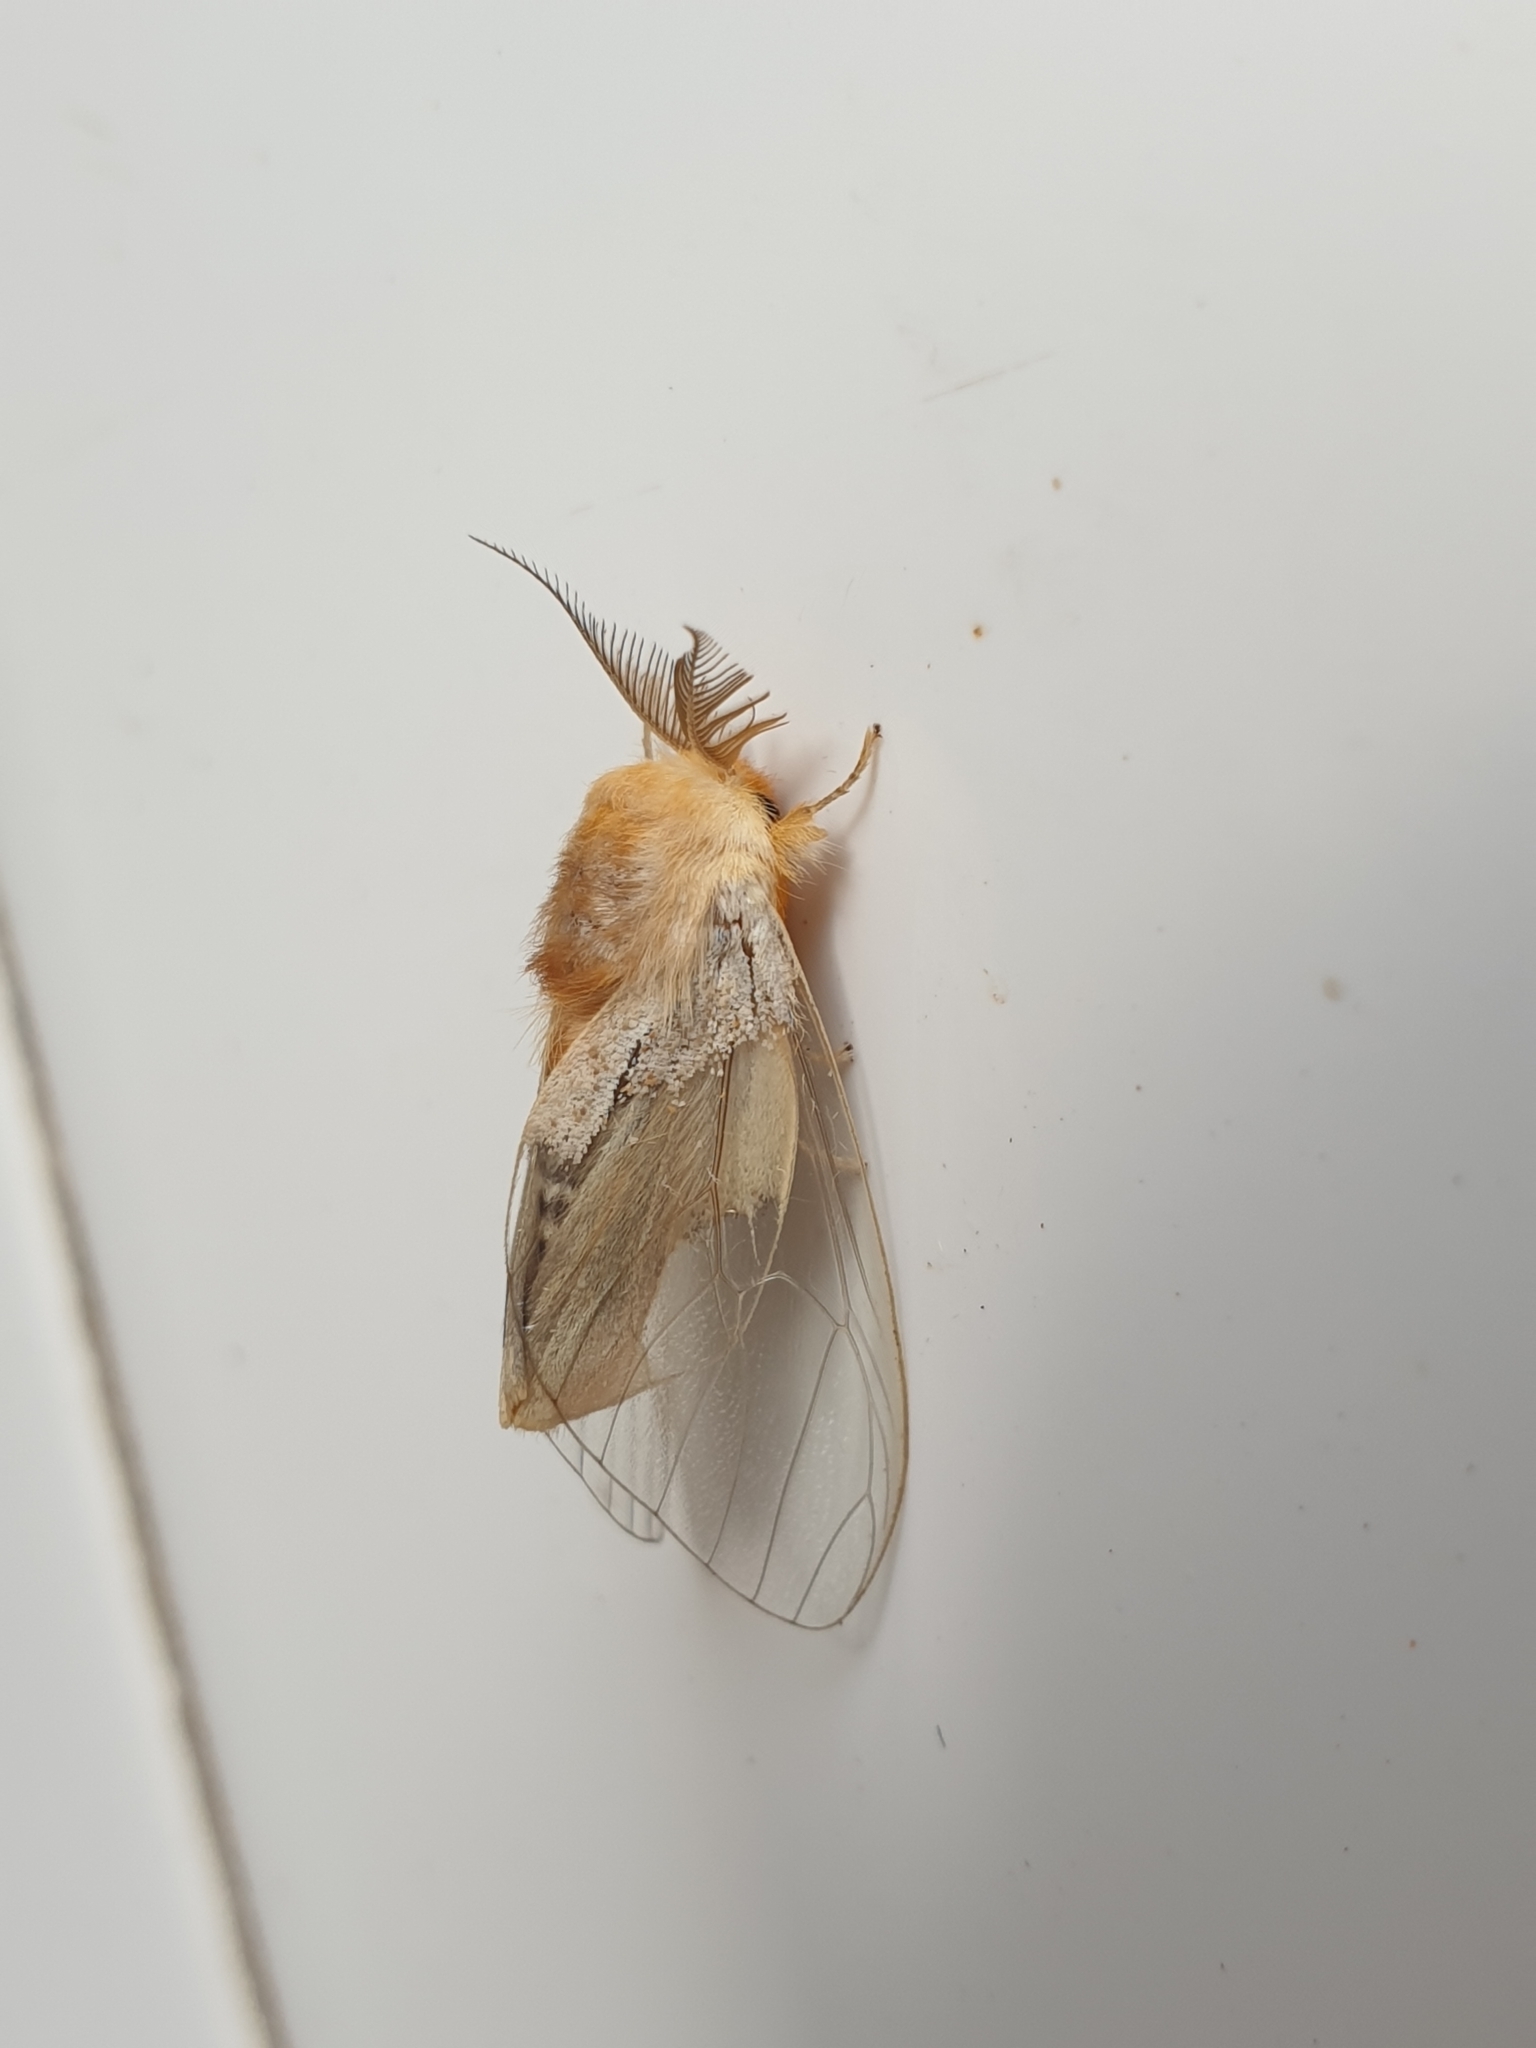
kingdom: Animalia
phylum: Arthropoda
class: Insecta
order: Lepidoptera
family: Erebidae
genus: Perina
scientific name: Perina nuda
